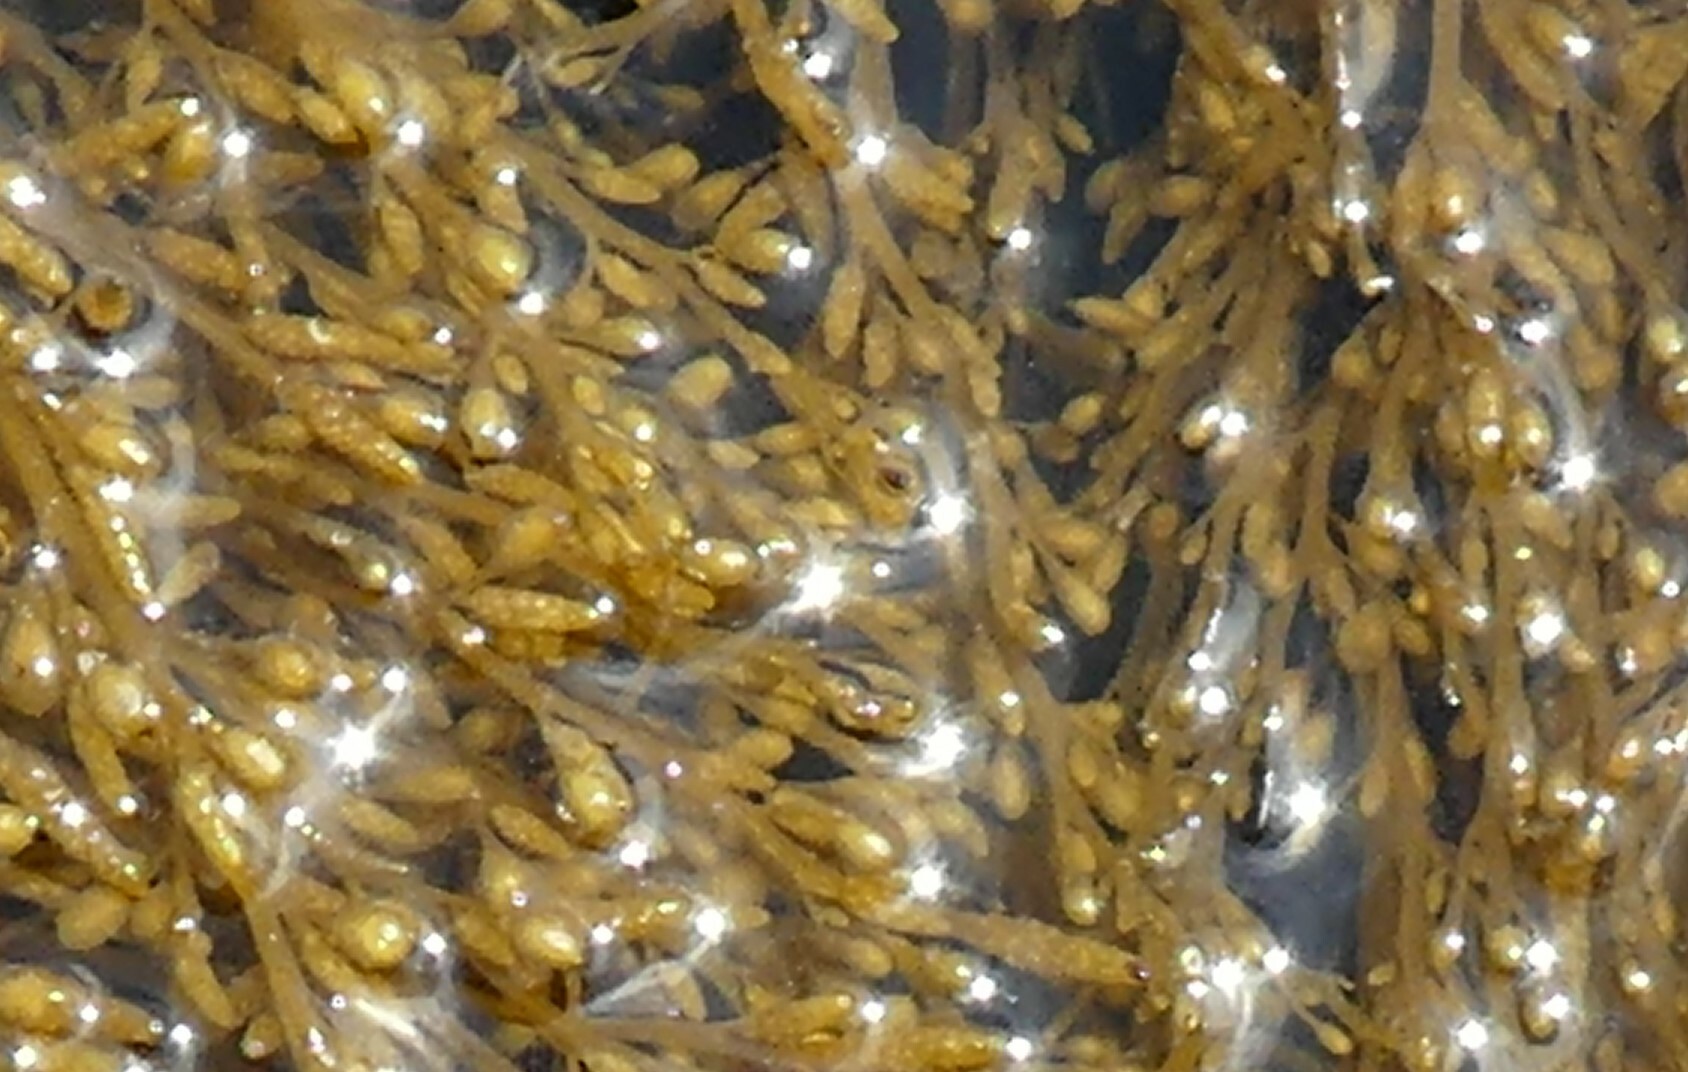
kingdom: Chromista
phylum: Ochrophyta
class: Phaeophyceae
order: Fucales
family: Sargassaceae
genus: Sargassum
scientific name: Sargassum muticum
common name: Japweed
